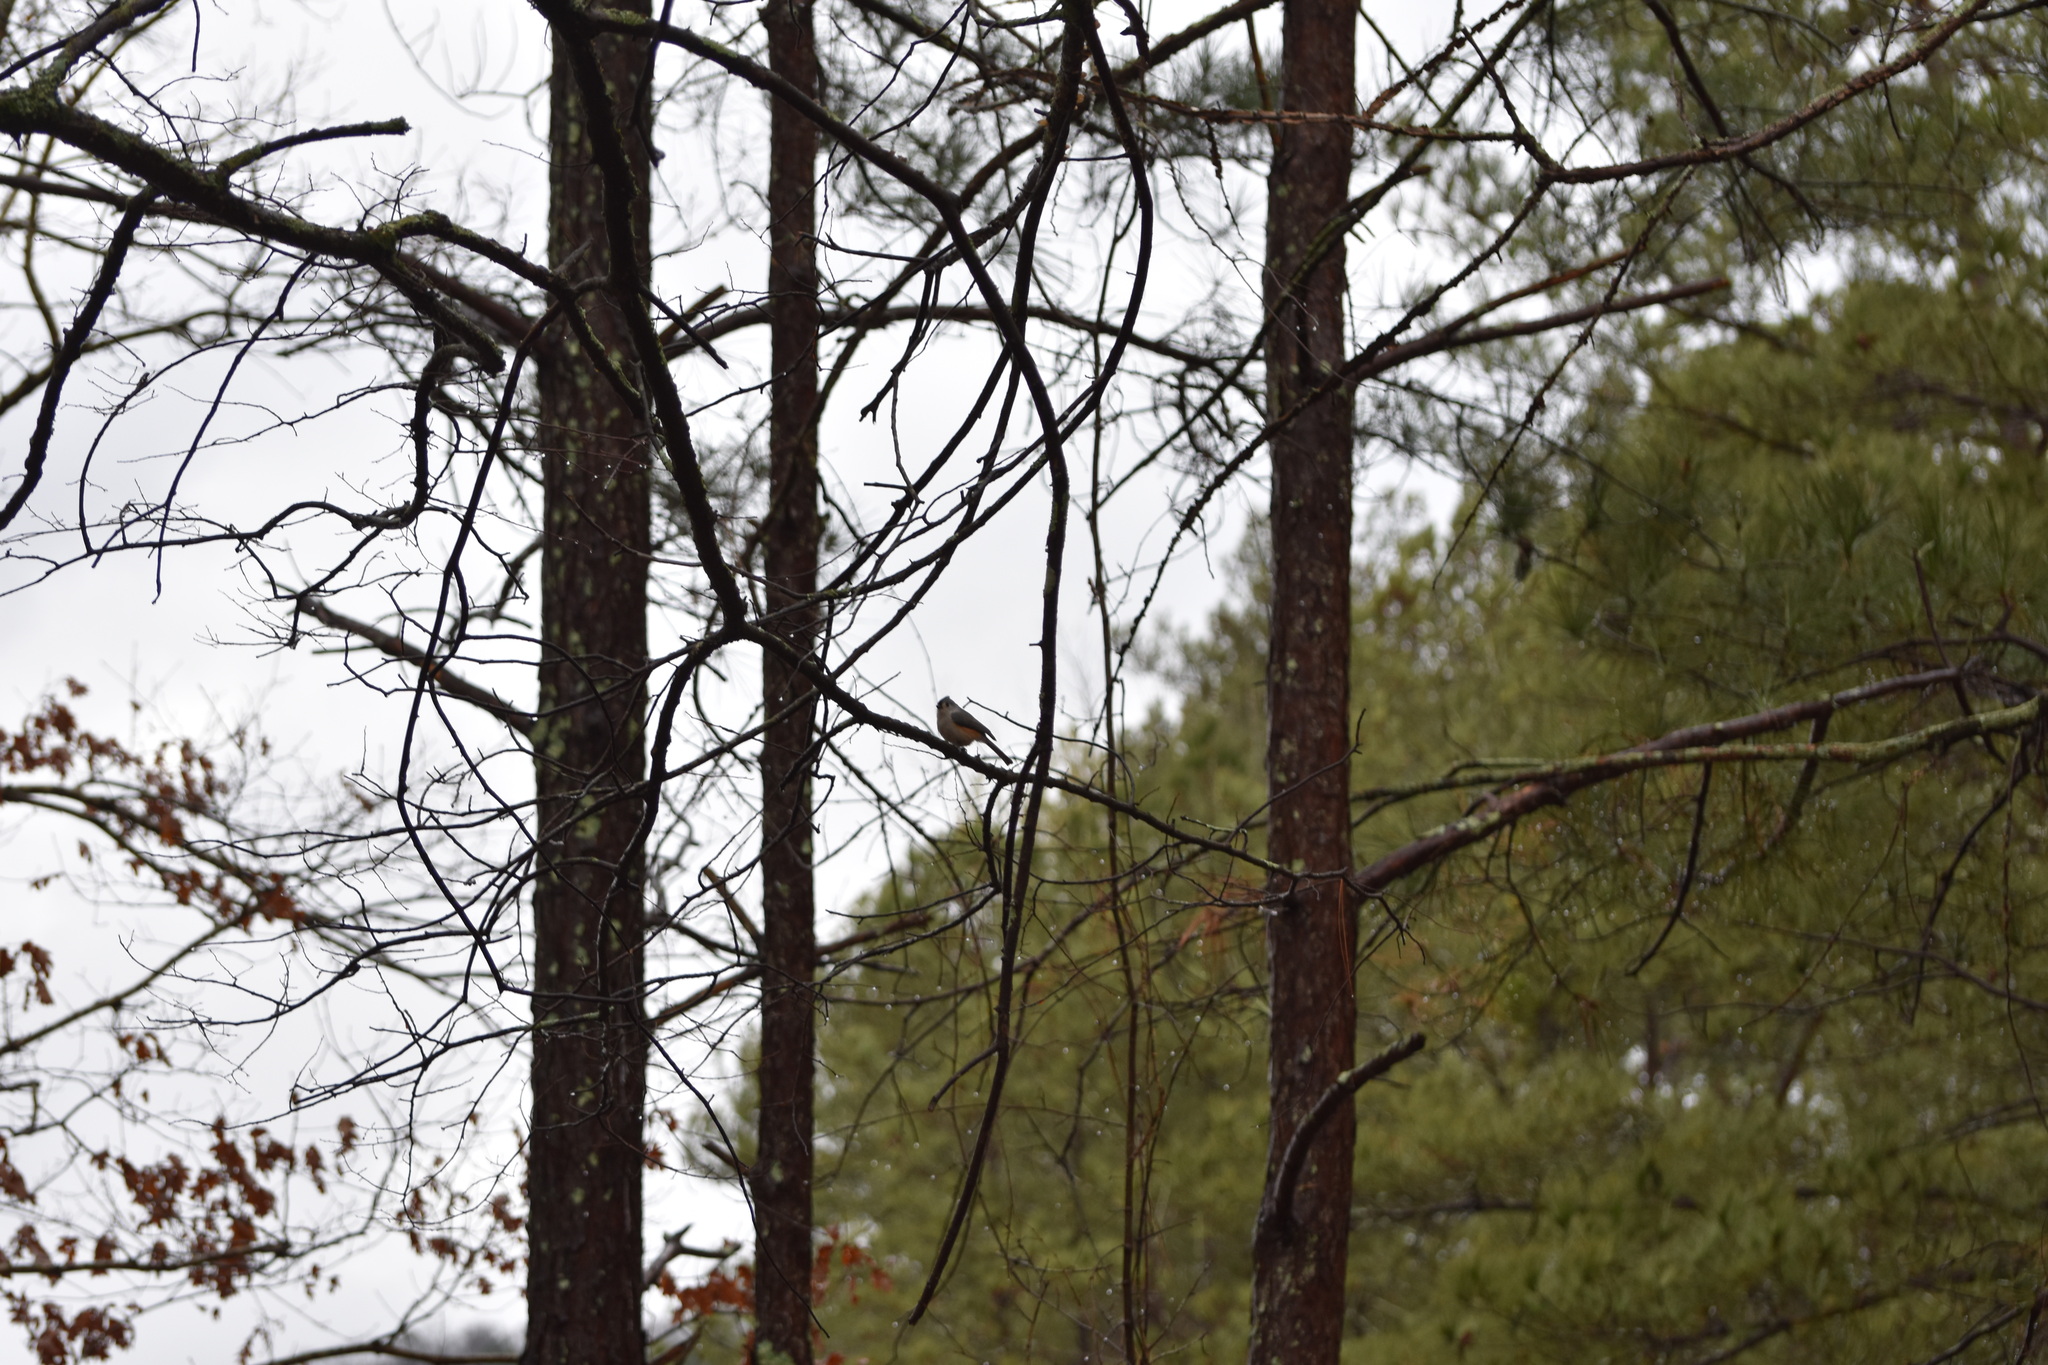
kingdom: Animalia
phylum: Chordata
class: Aves
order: Passeriformes
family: Paridae
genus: Baeolophus
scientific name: Baeolophus bicolor
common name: Tufted titmouse
